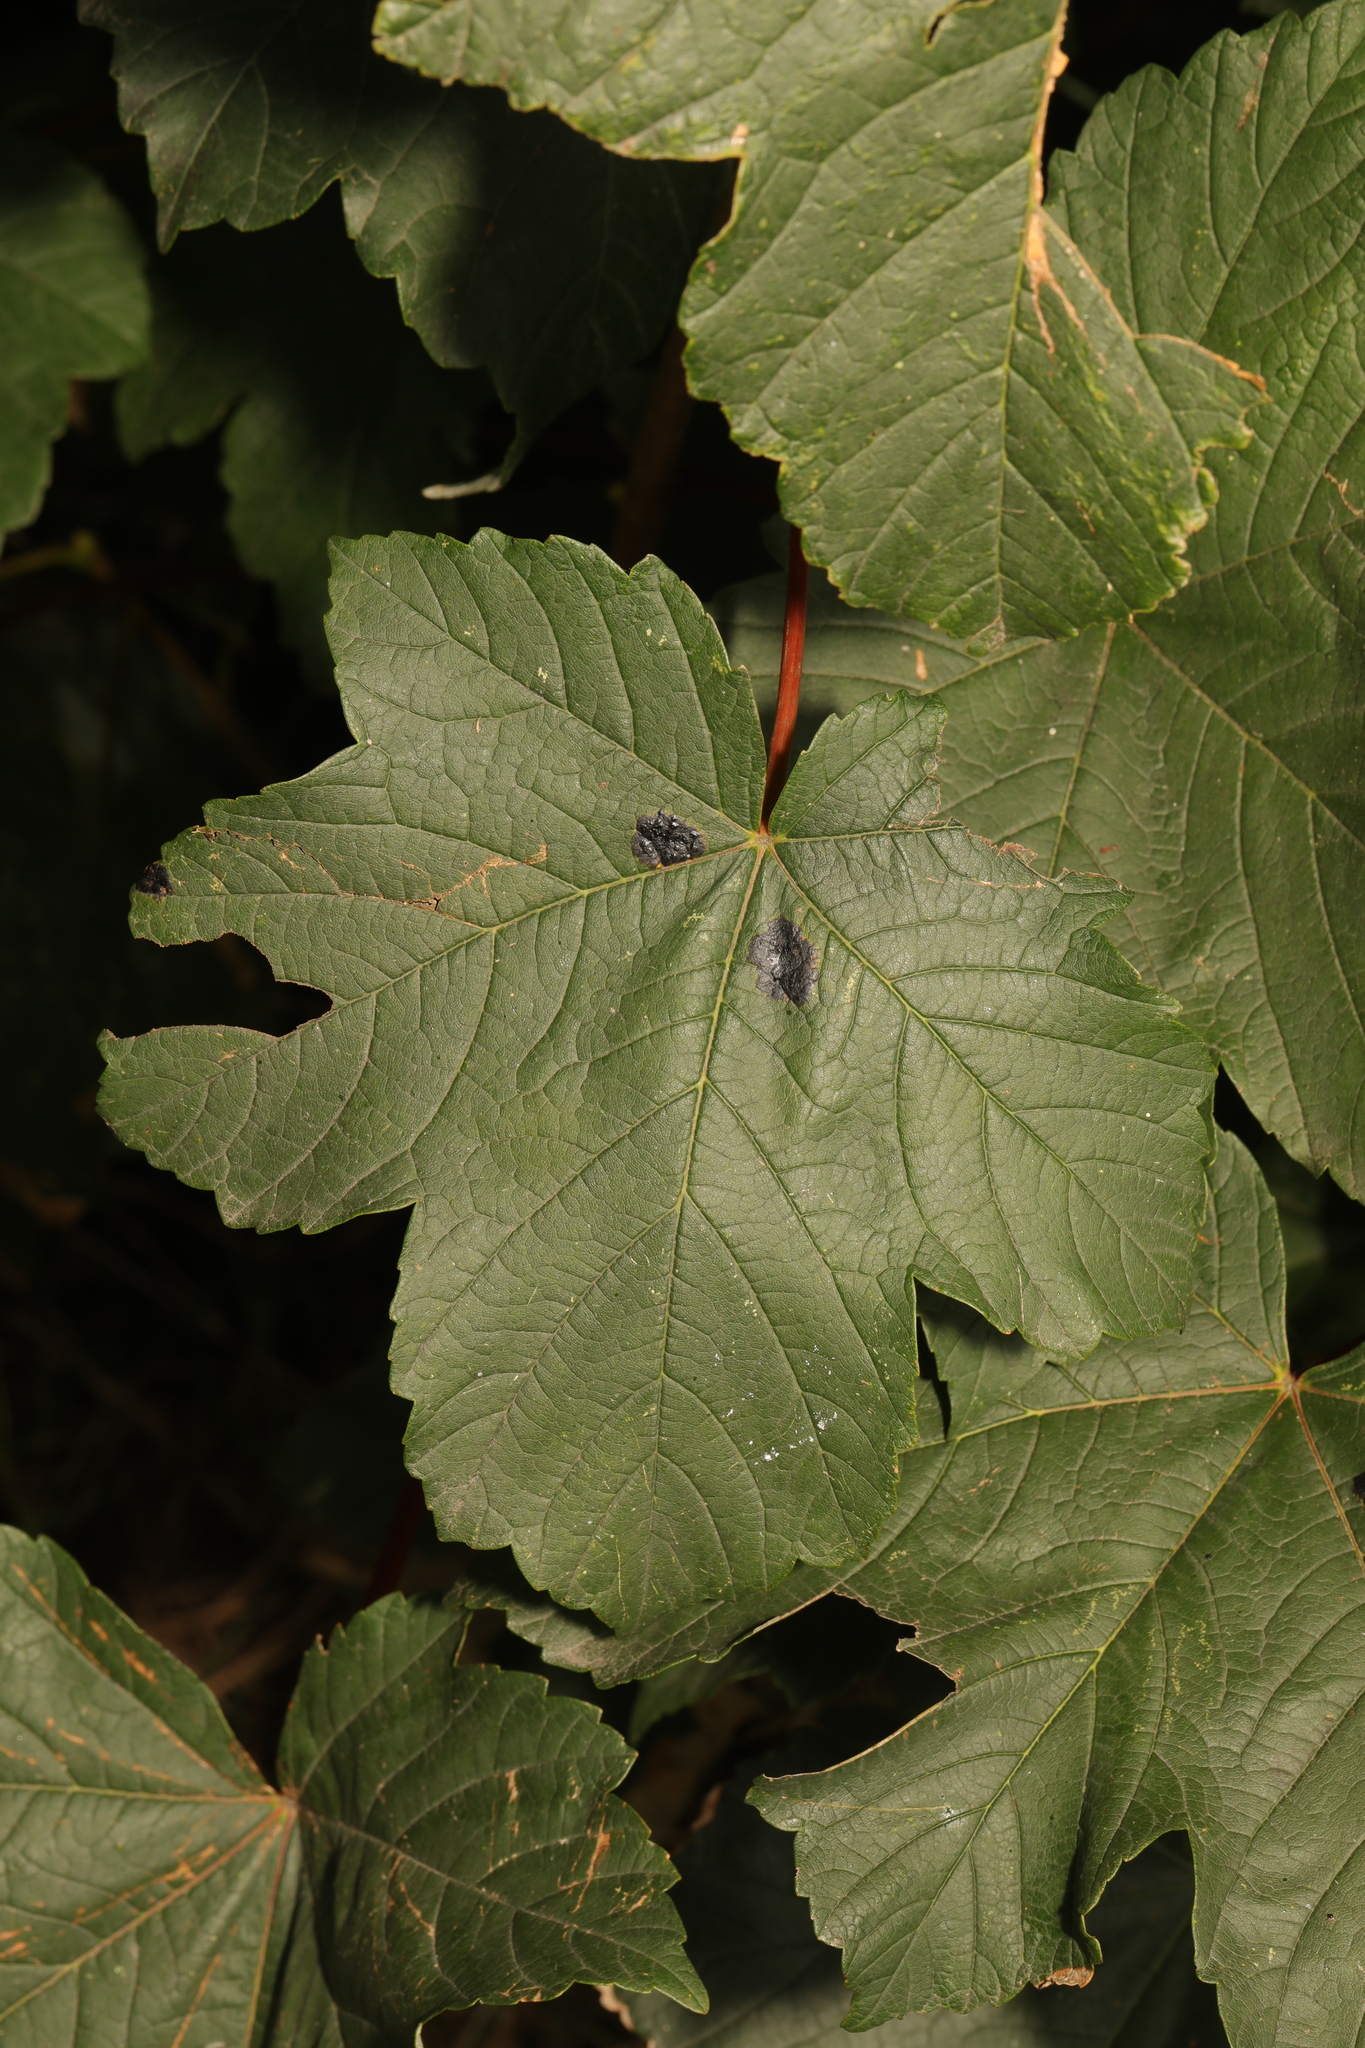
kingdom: Plantae
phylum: Tracheophyta
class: Magnoliopsida
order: Sapindales
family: Sapindaceae
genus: Acer
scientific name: Acer pseudoplatanus
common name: Sycamore
